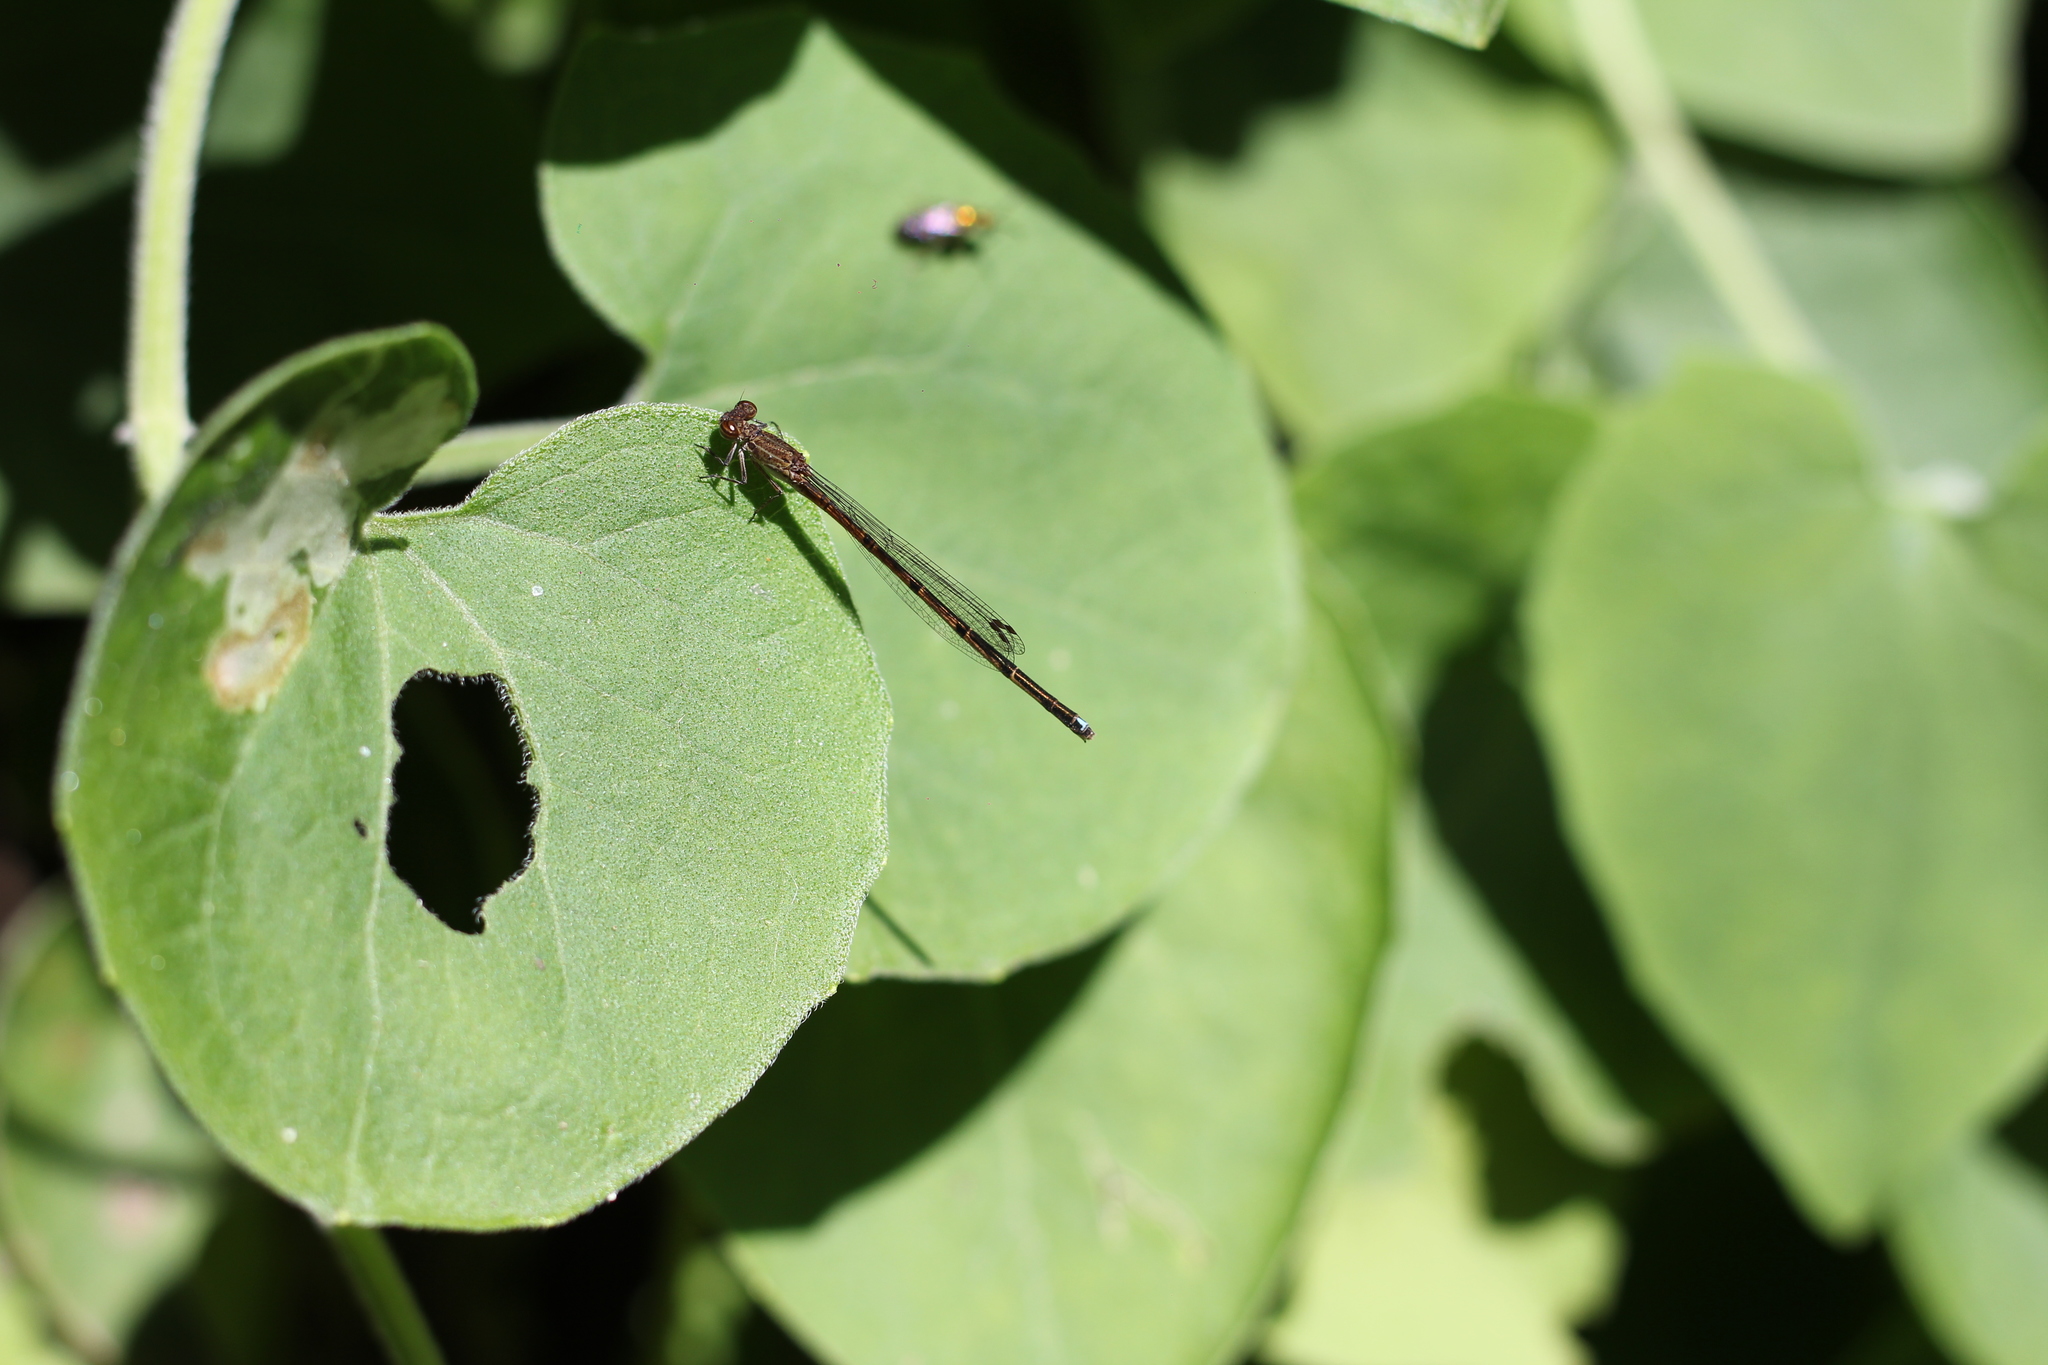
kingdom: Animalia
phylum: Arthropoda
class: Insecta
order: Odonata
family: Coenagrionidae
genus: Oxyagrion
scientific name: Oxyagrion terminale
